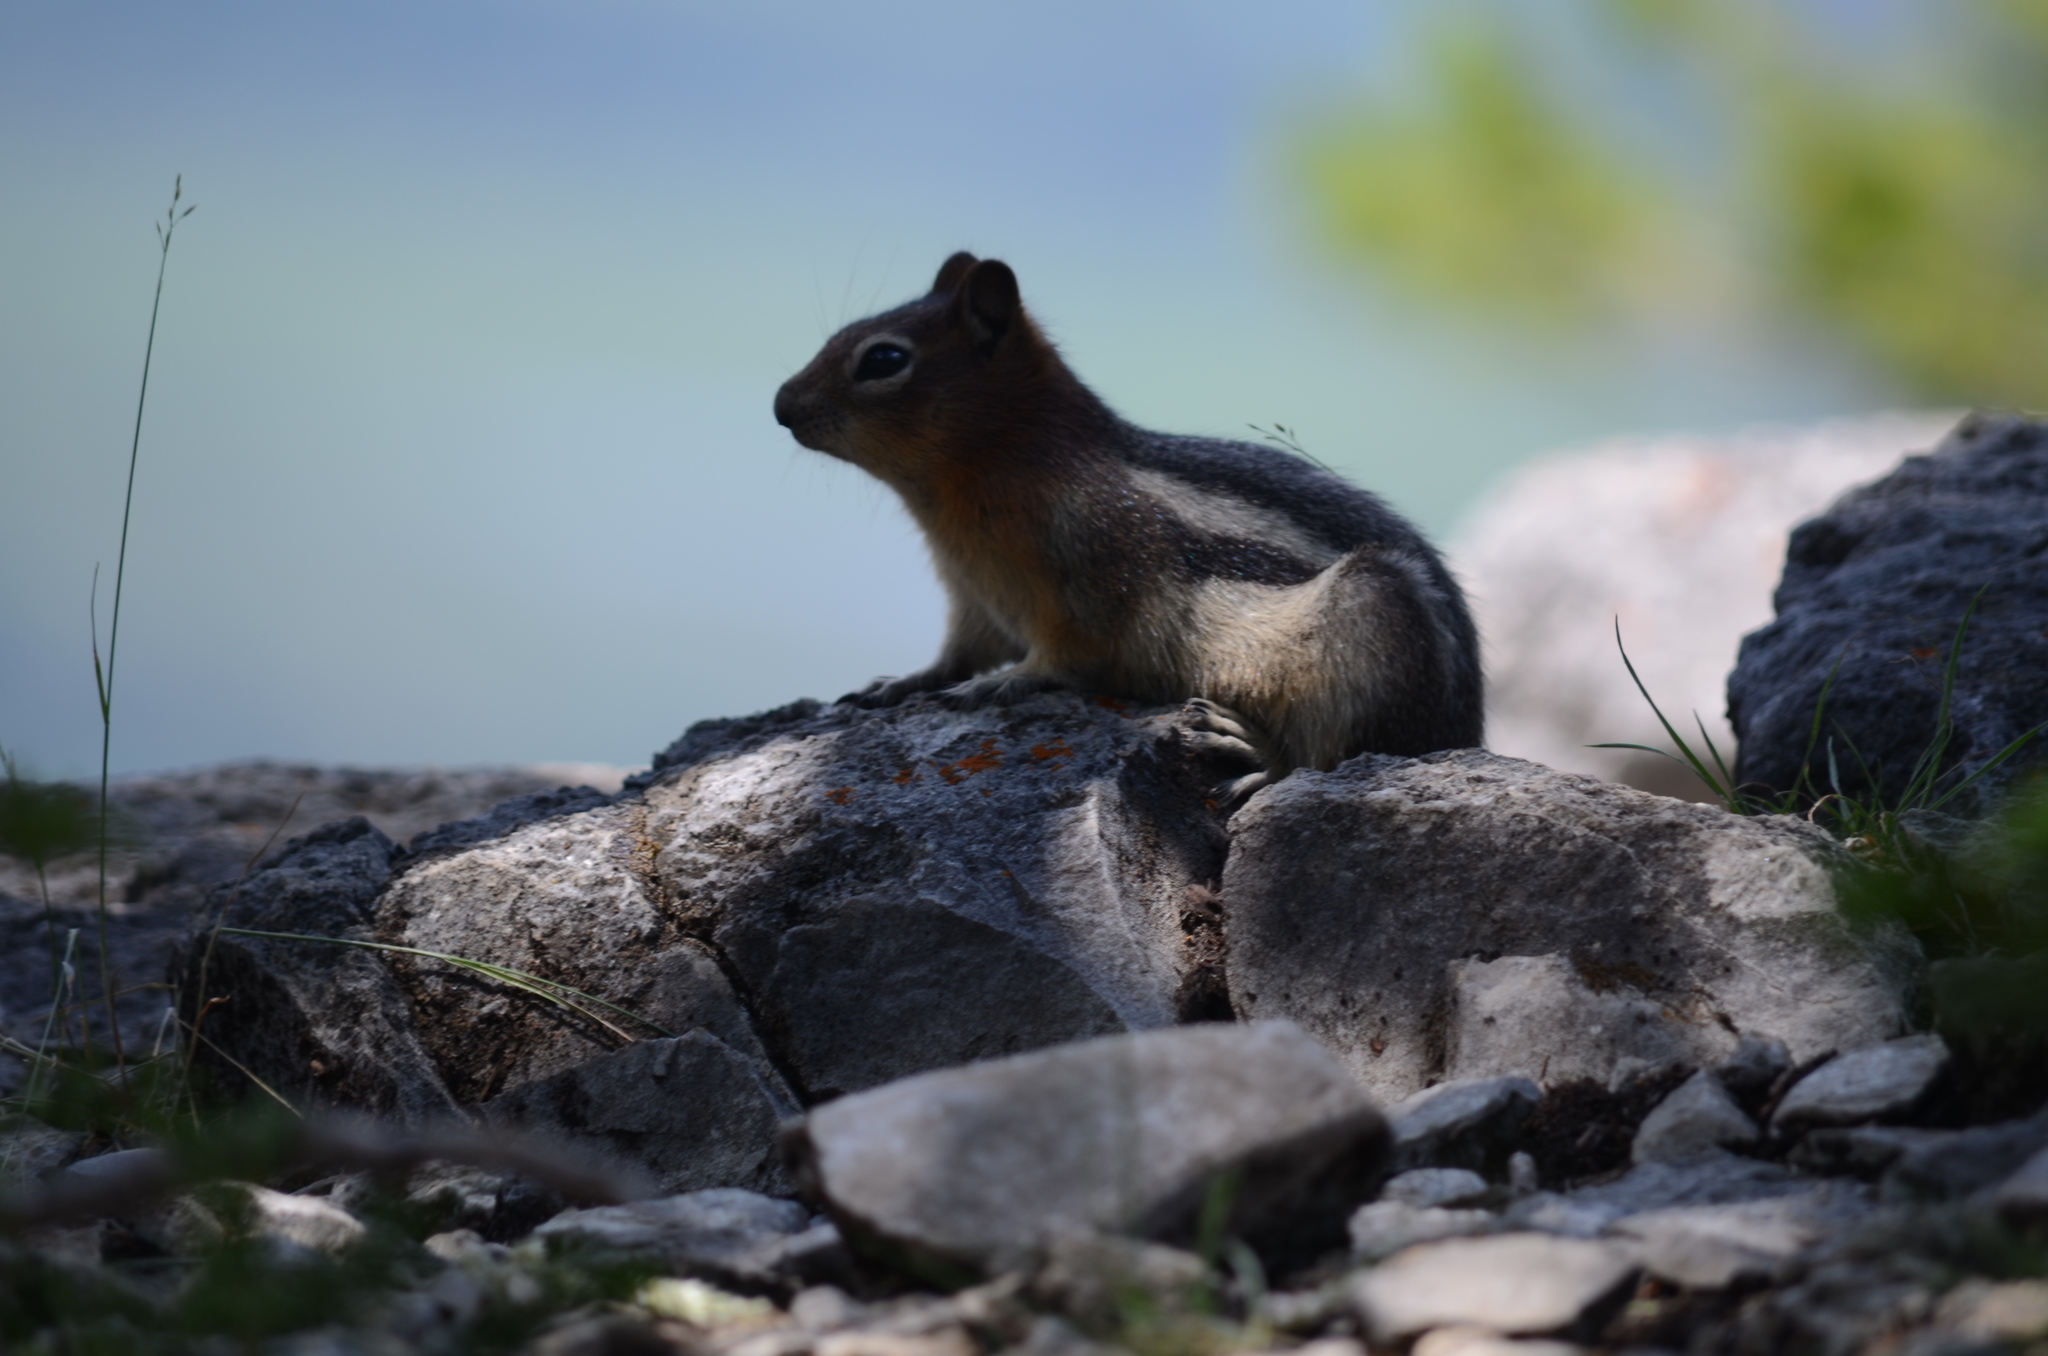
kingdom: Animalia
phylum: Chordata
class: Mammalia
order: Rodentia
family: Sciuridae
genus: Callospermophilus
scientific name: Callospermophilus lateralis
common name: Golden-mantled ground squirrel
